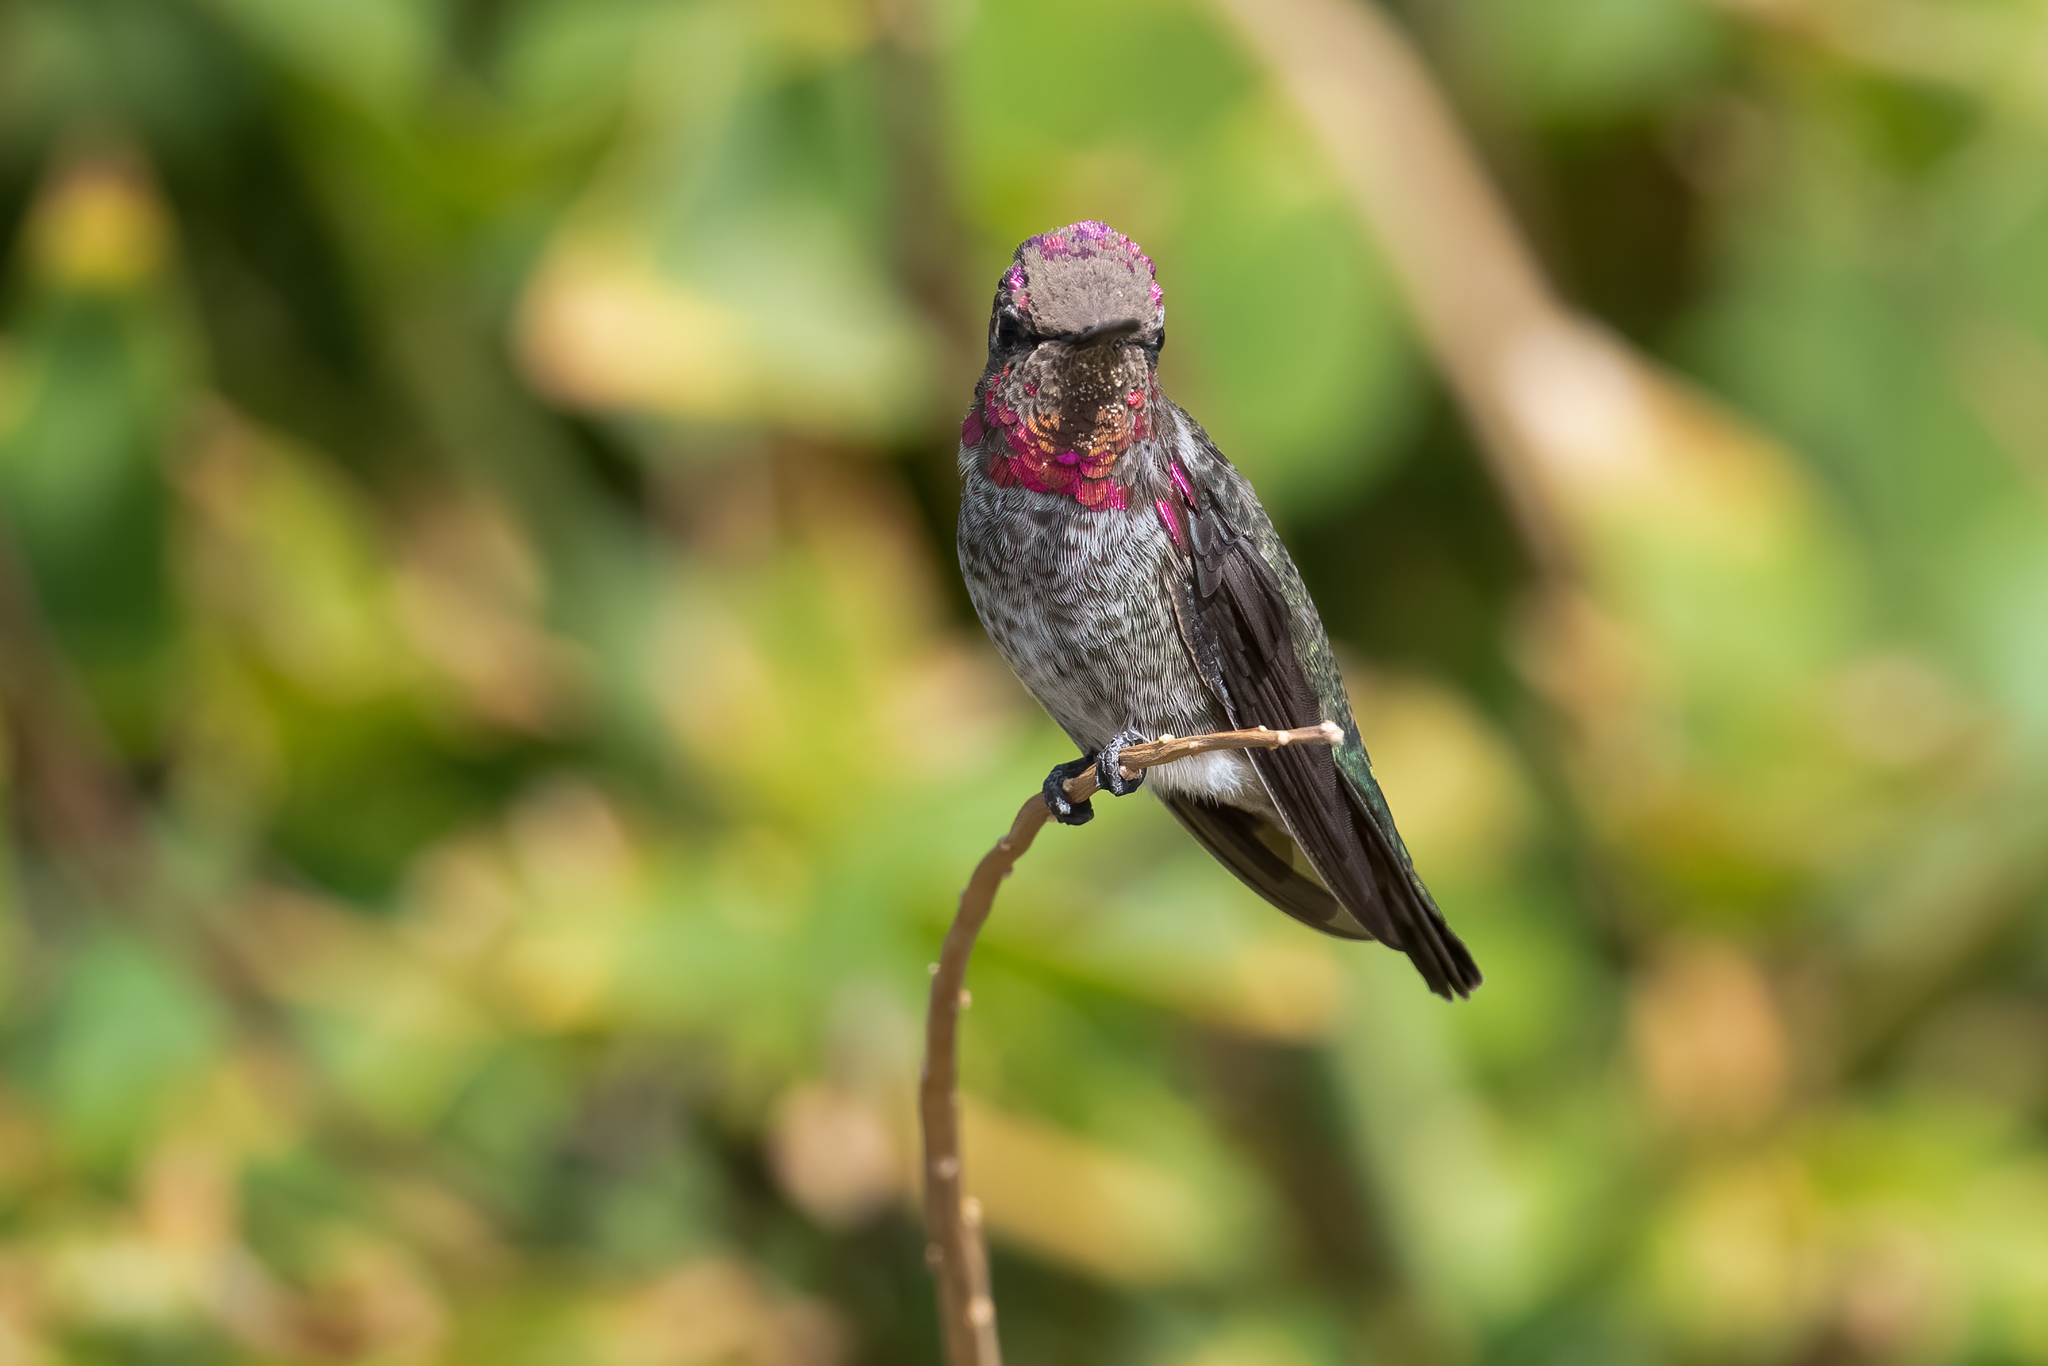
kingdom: Animalia
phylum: Chordata
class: Aves
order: Apodiformes
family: Trochilidae
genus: Calypte
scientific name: Calypte anna
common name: Anna's hummingbird
